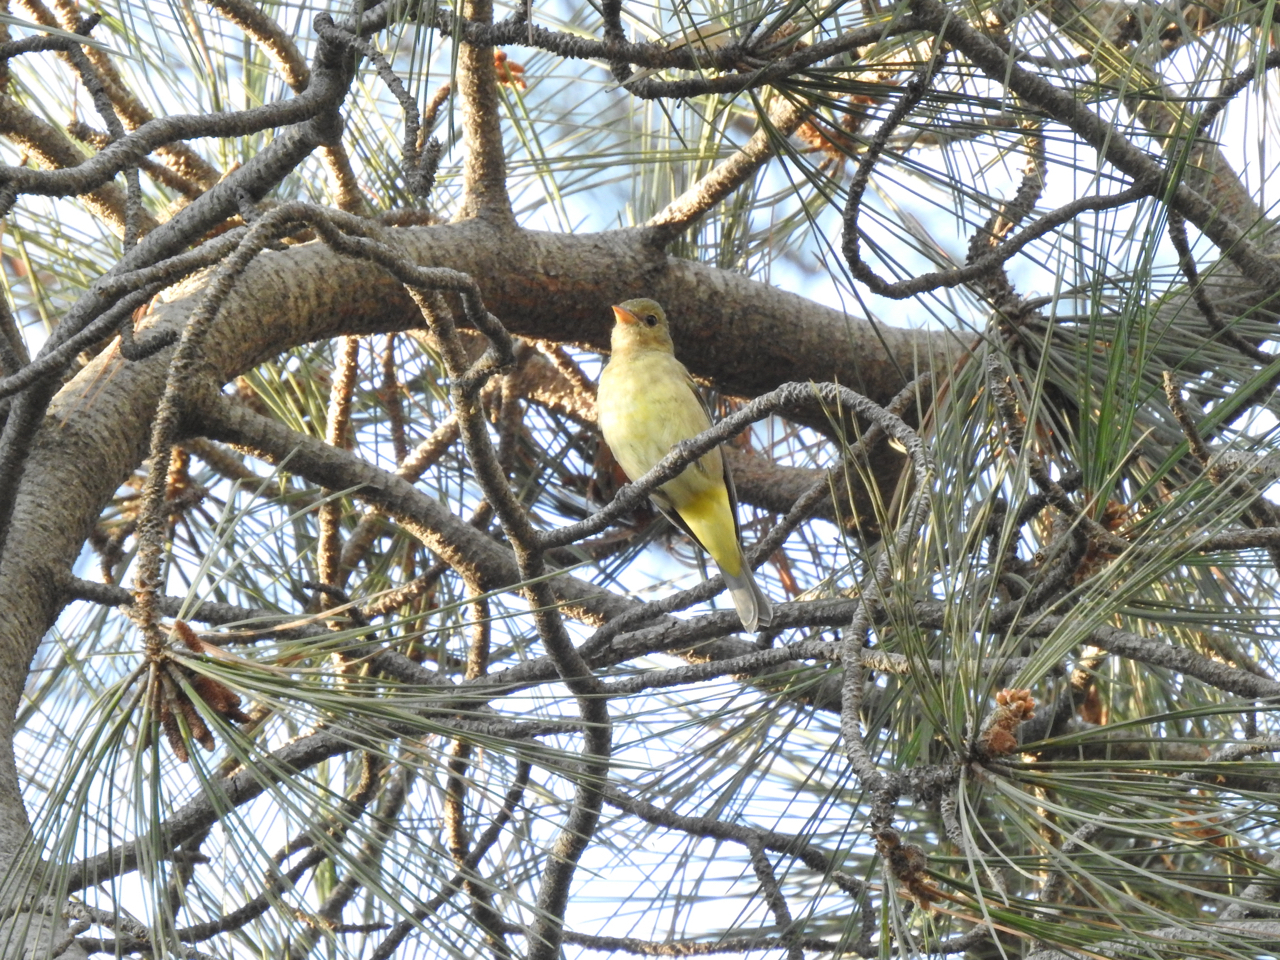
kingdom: Animalia
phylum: Chordata
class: Aves
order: Passeriformes
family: Cardinalidae
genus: Piranga
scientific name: Piranga ludoviciana
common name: Western tanager
